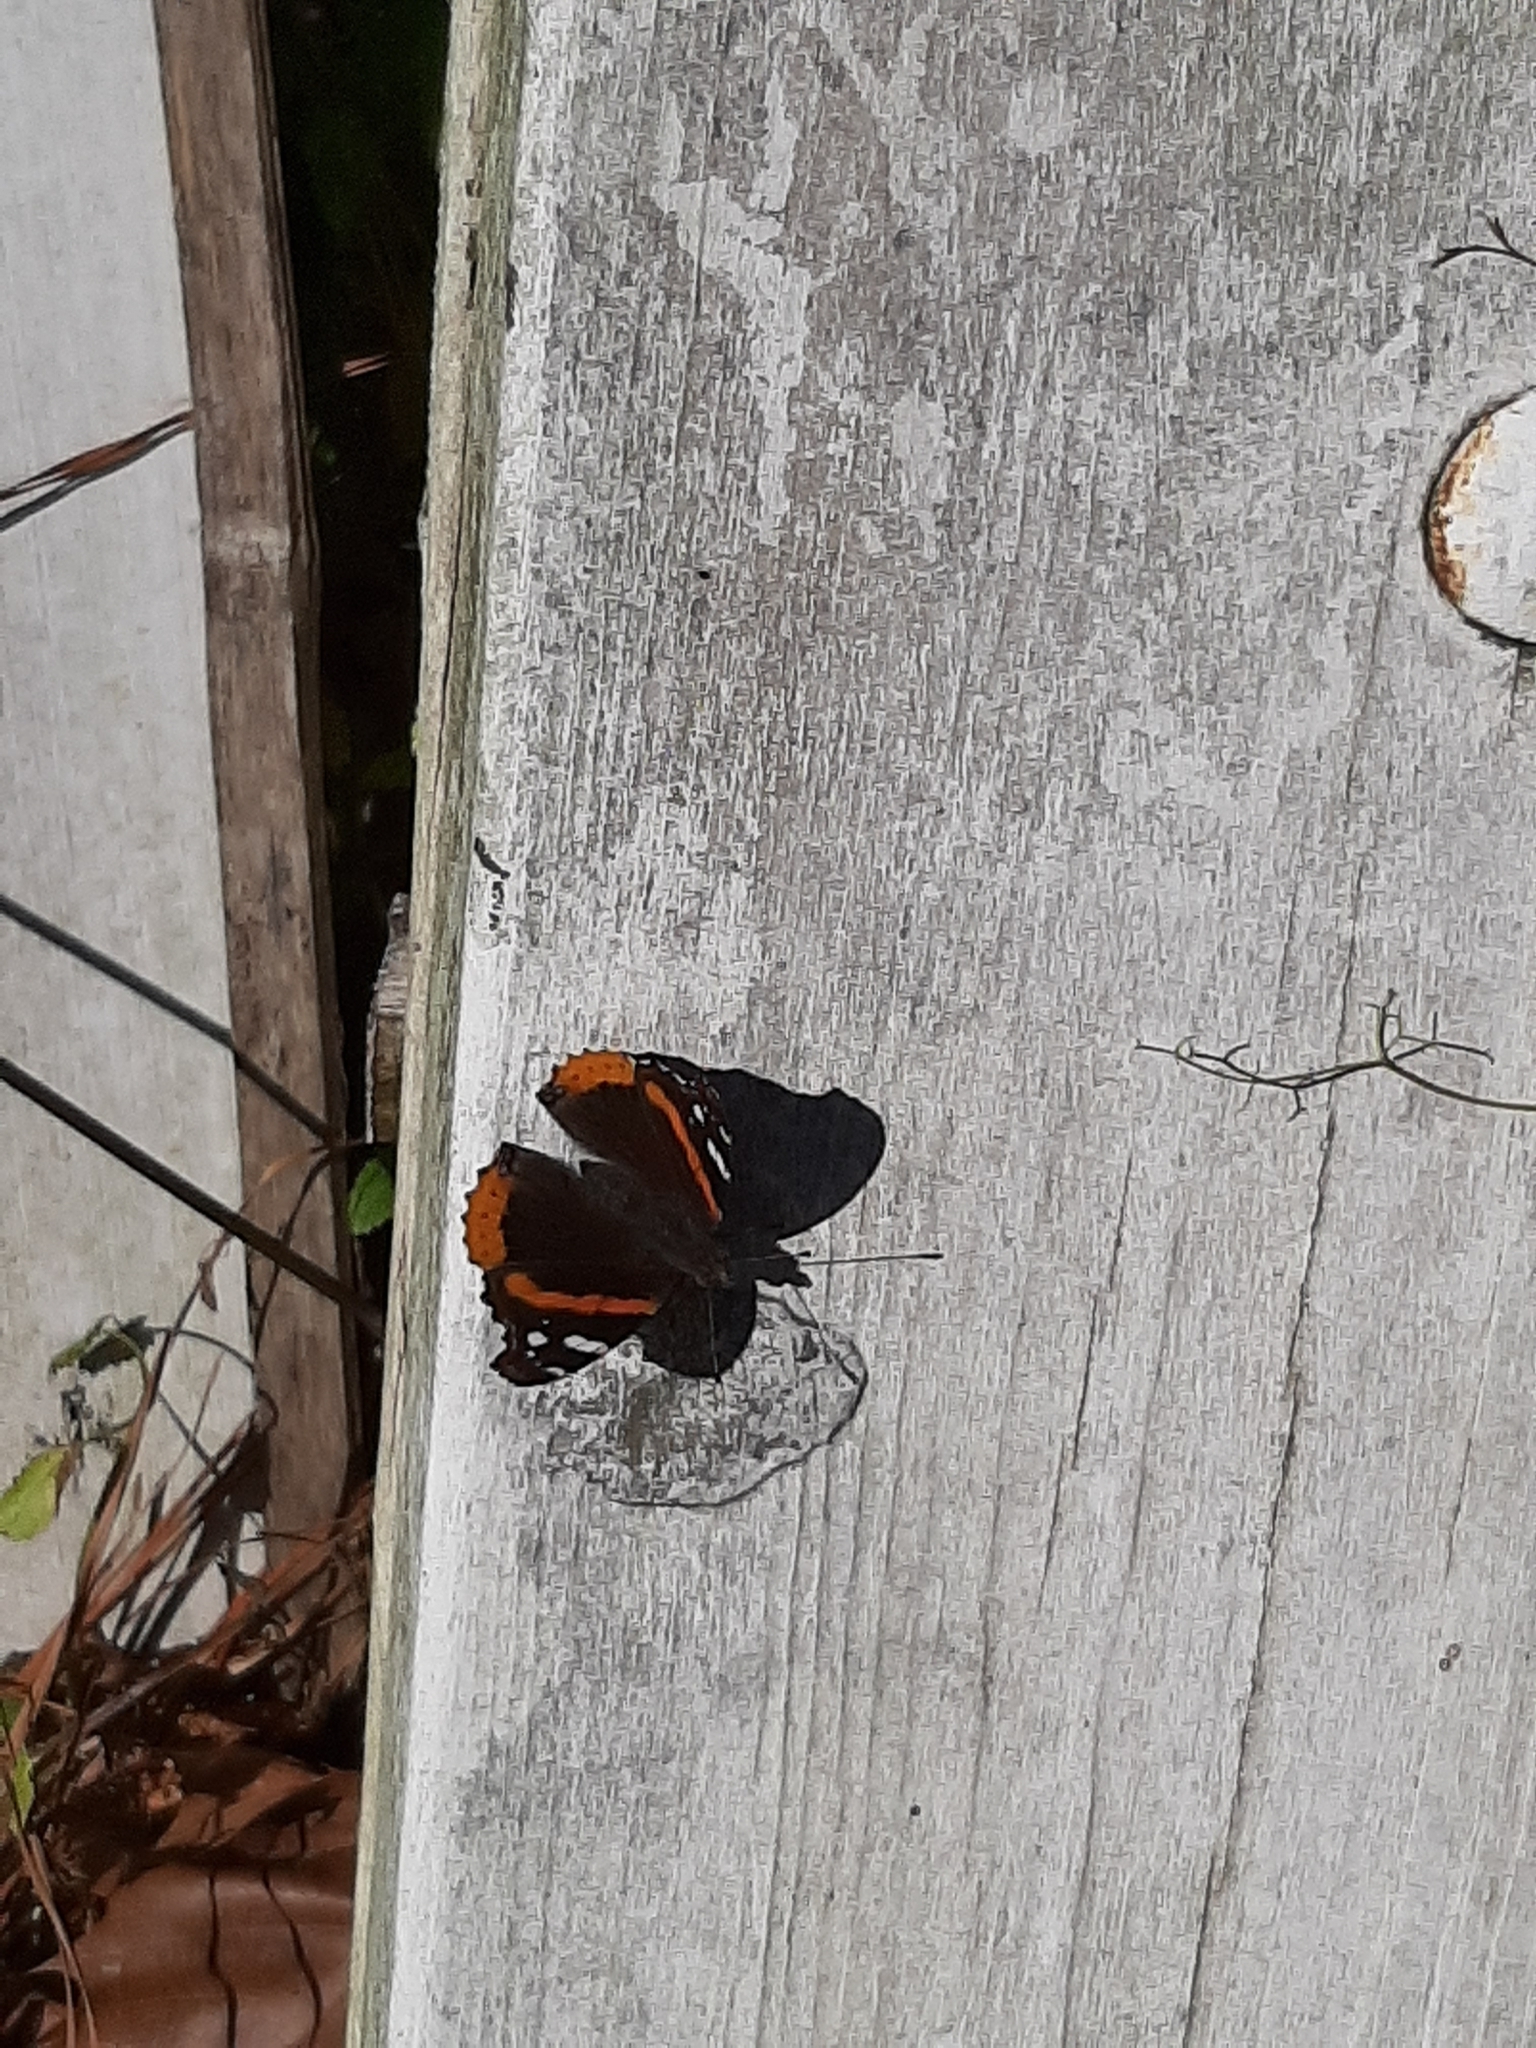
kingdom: Animalia
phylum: Arthropoda
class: Insecta
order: Lepidoptera
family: Nymphalidae
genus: Vanessa
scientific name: Vanessa atalanta
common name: Red admiral
